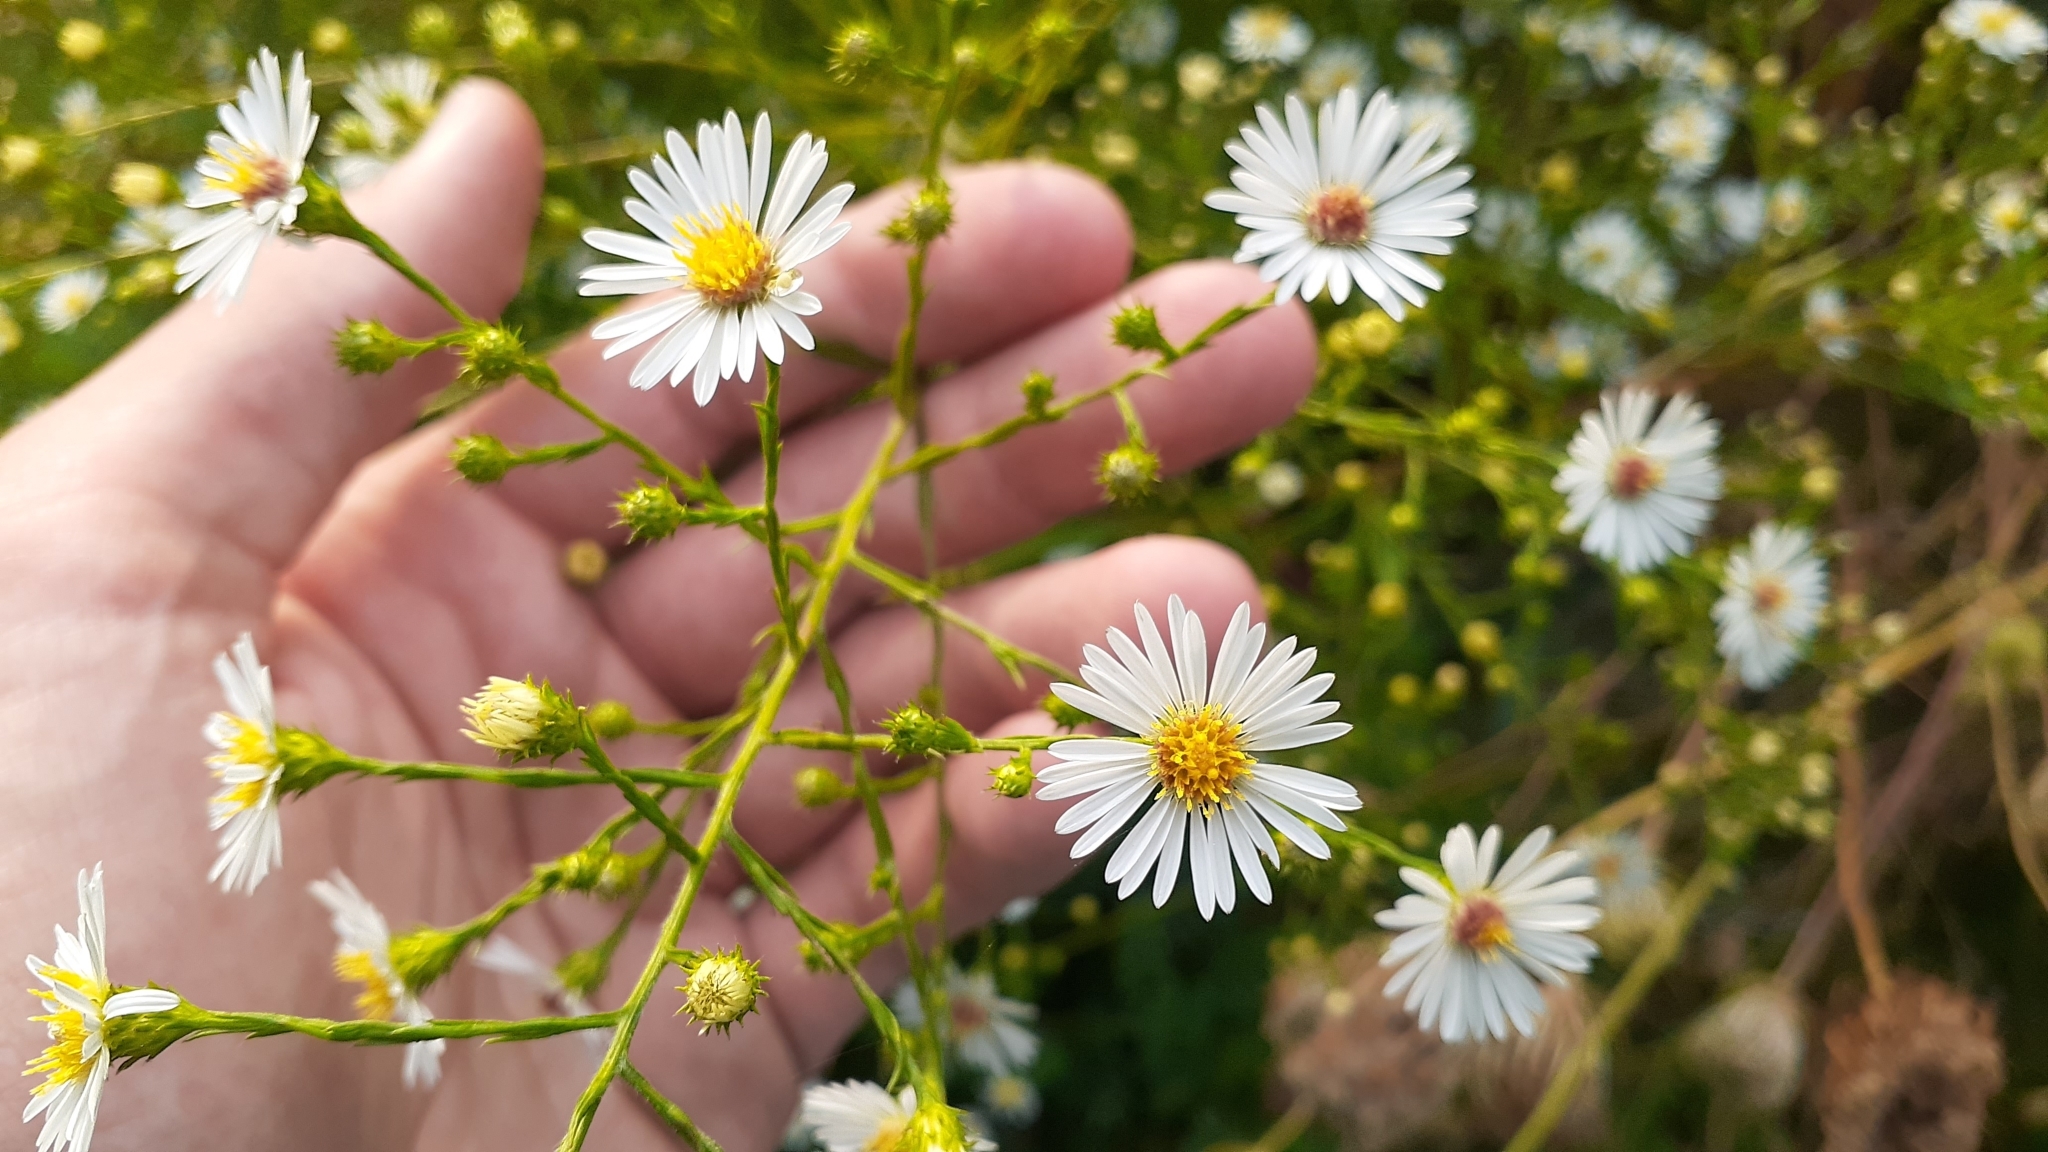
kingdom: Plantae
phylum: Tracheophyta
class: Magnoliopsida
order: Asterales
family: Asteraceae
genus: Symphyotrichum
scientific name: Symphyotrichum pilosum
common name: Awl aster
